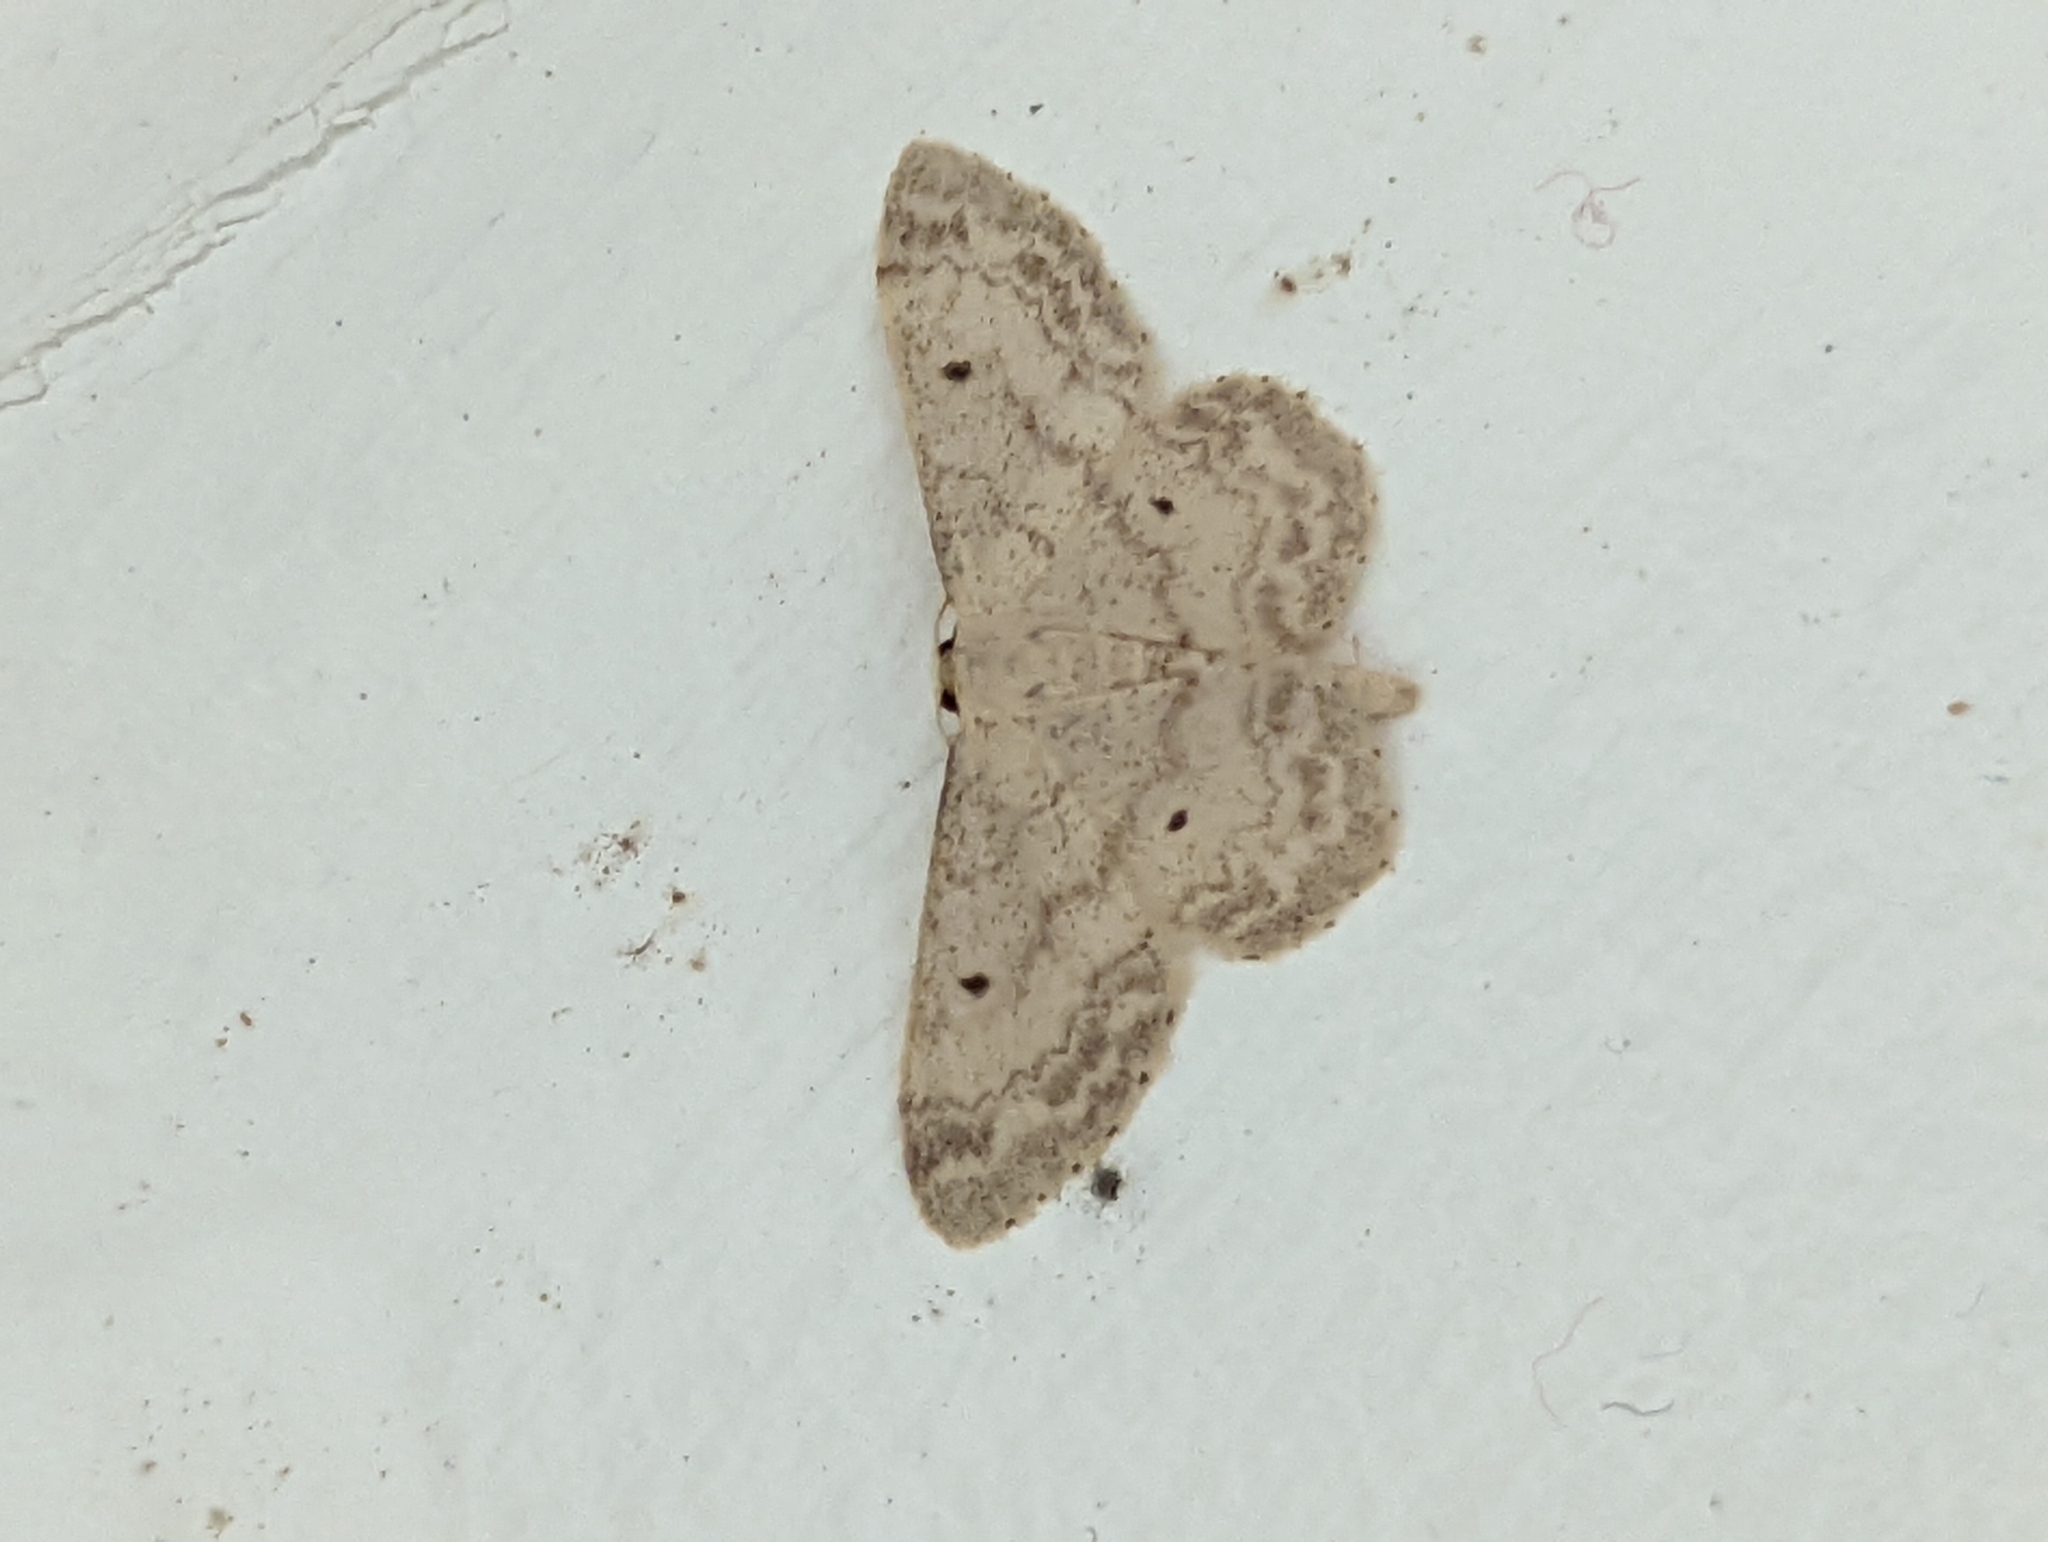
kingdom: Animalia
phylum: Arthropoda
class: Insecta
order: Lepidoptera
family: Geometridae
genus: Idaea
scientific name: Idaea biselata
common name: Small fan-footed wave
